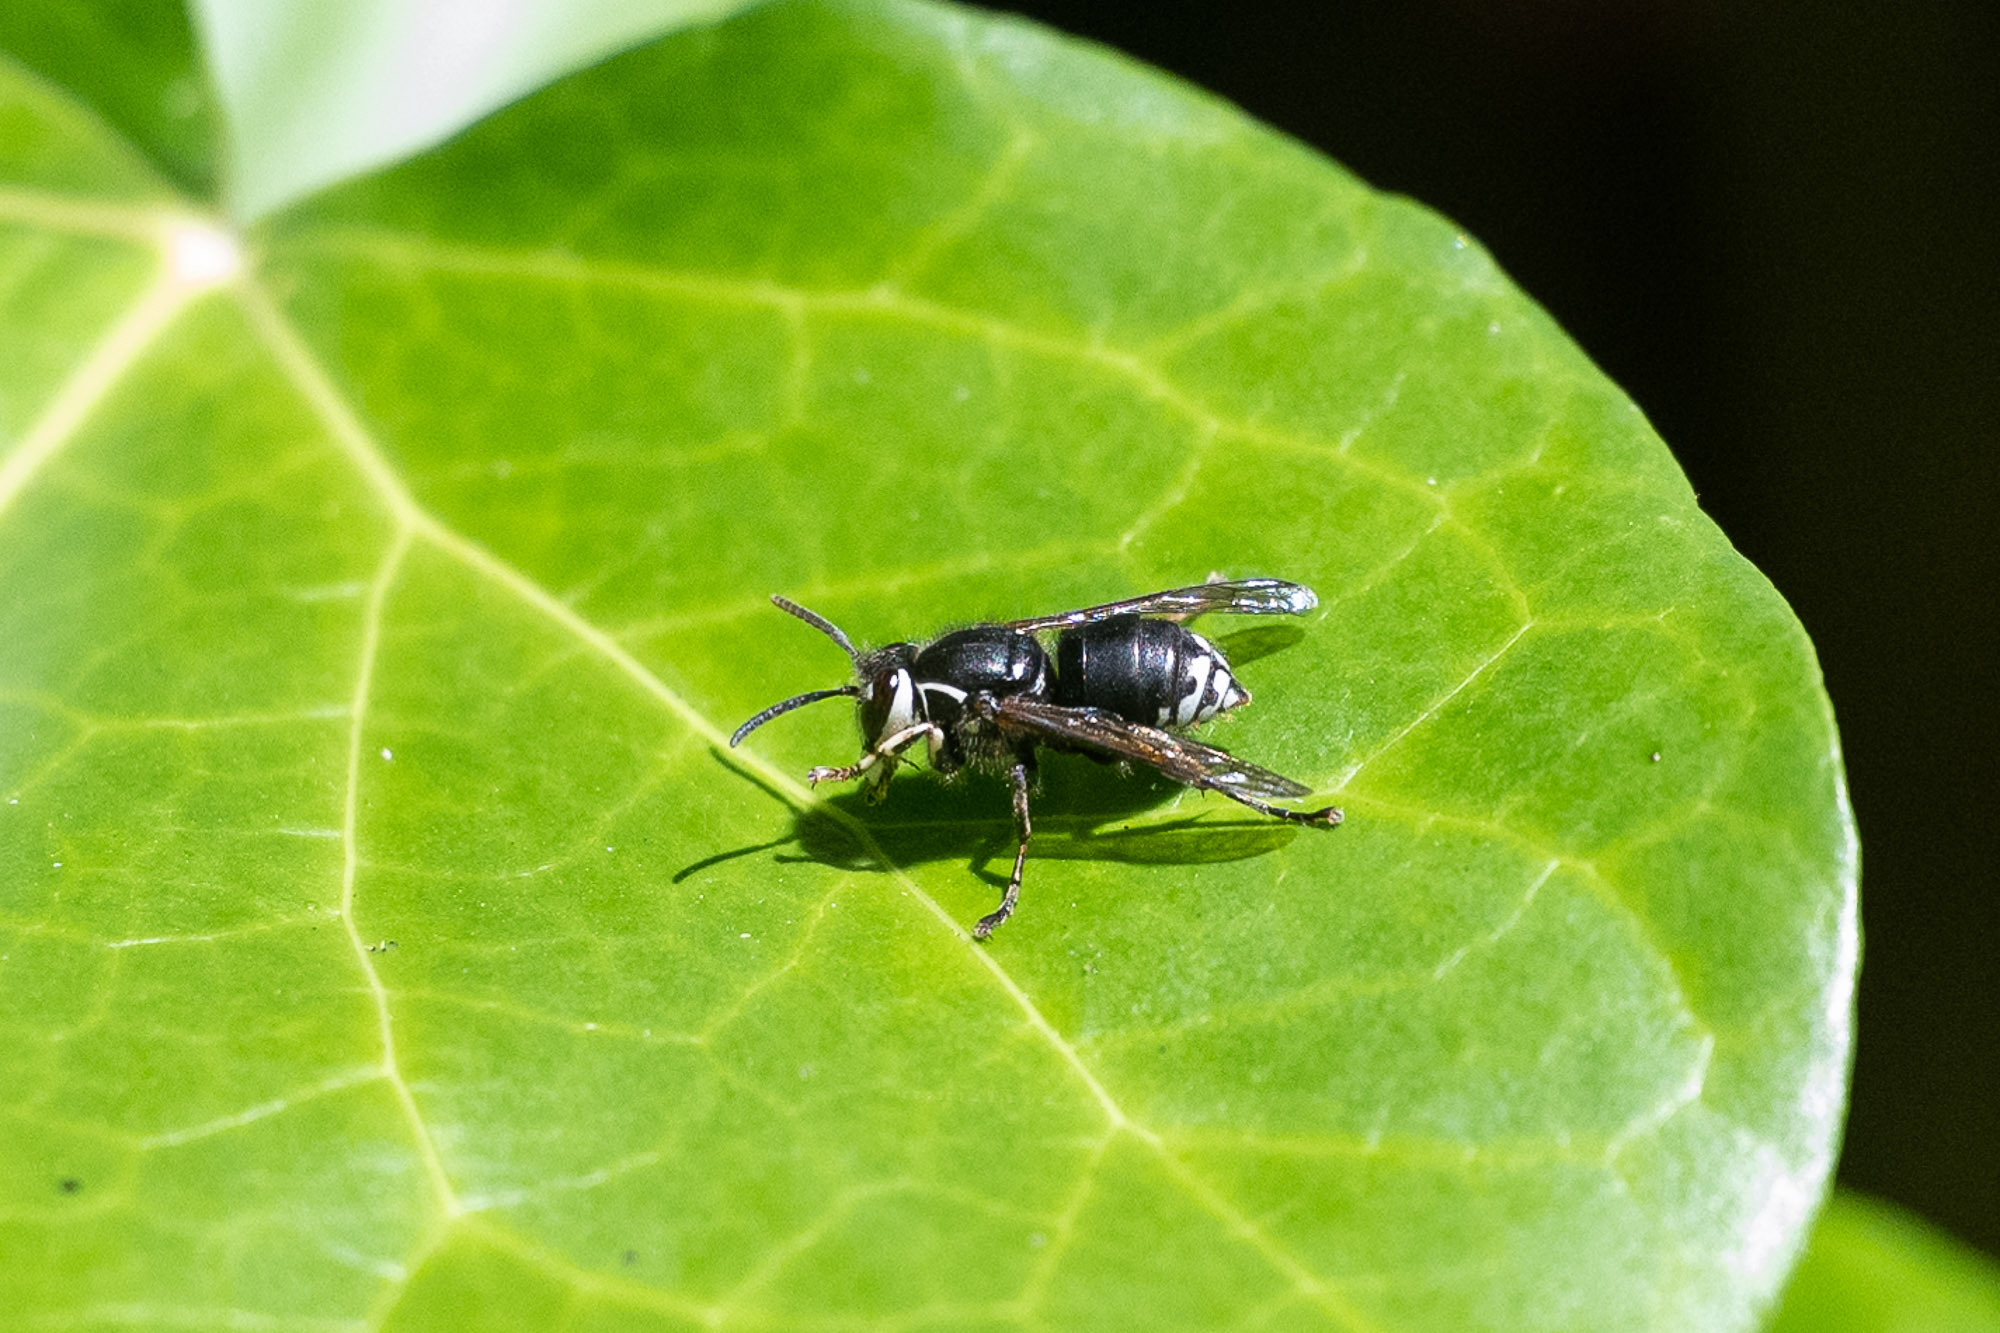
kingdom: Animalia
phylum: Arthropoda
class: Insecta
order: Hymenoptera
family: Vespidae
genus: Dolichovespula
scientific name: Dolichovespula maculata
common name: Bald-faced hornet
